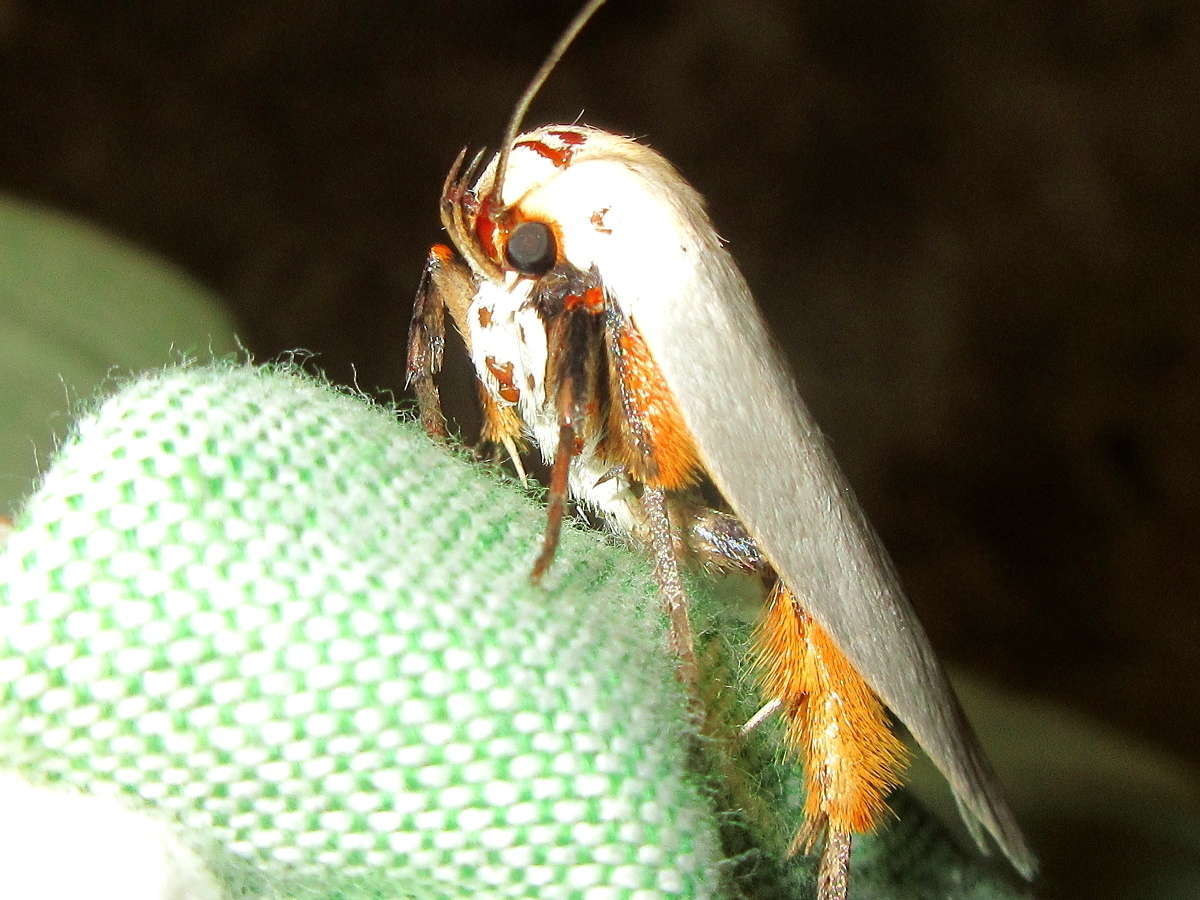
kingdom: Animalia
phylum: Arthropoda
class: Insecta
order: Lepidoptera
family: Xyloryctidae
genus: Maroga
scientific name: Maroga melanostigma
